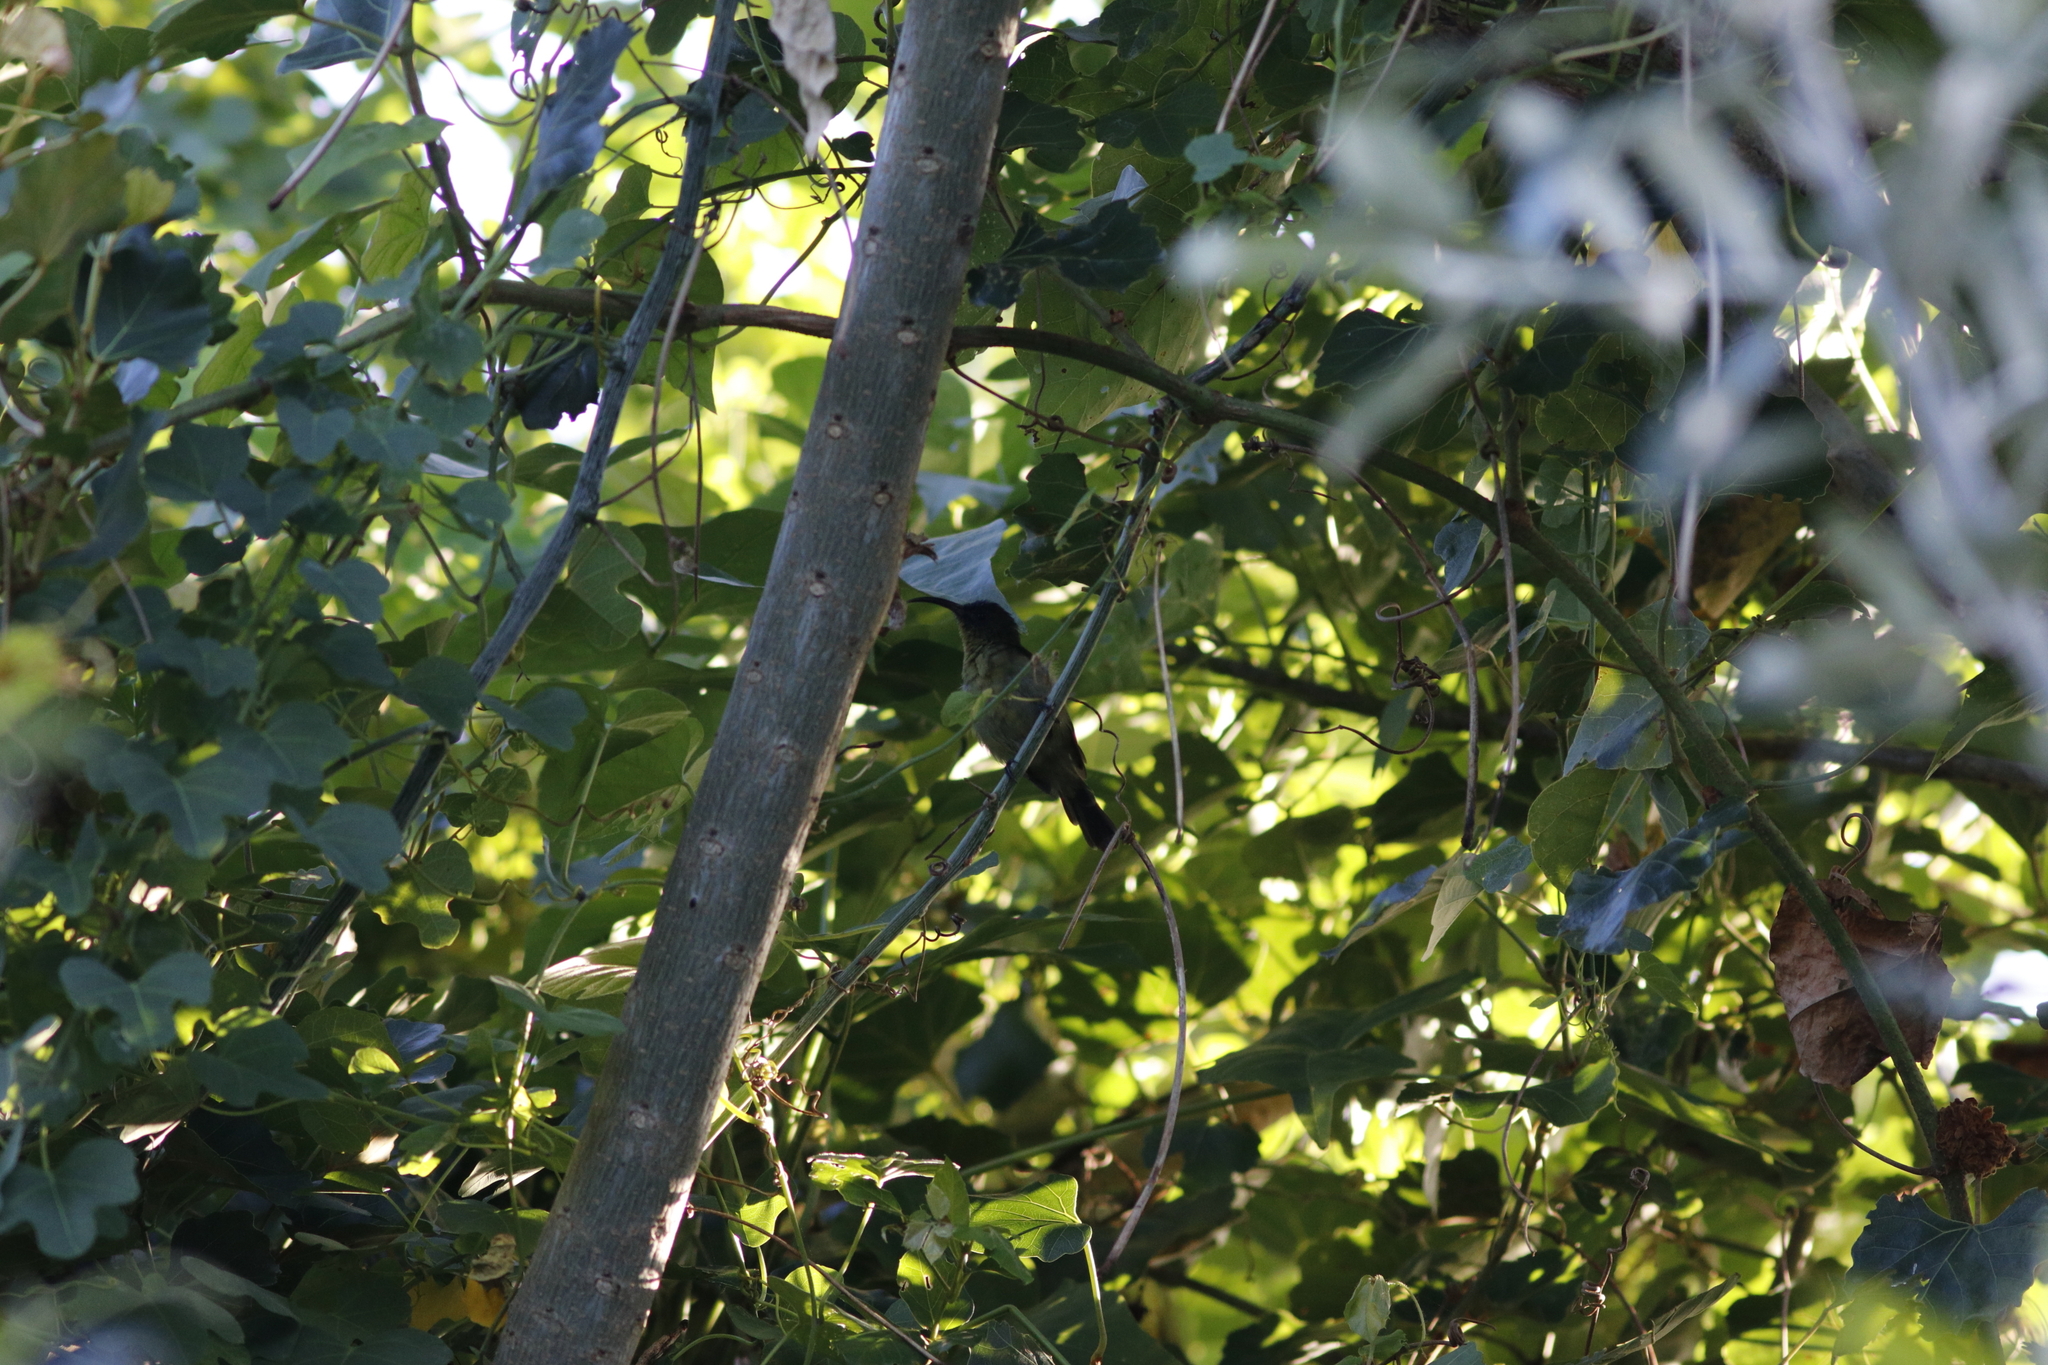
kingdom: Animalia
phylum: Chordata
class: Aves
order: Passeriformes
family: Nectariniidae
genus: Cyanomitra
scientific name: Cyanomitra olivacea
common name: Olive sunbird
